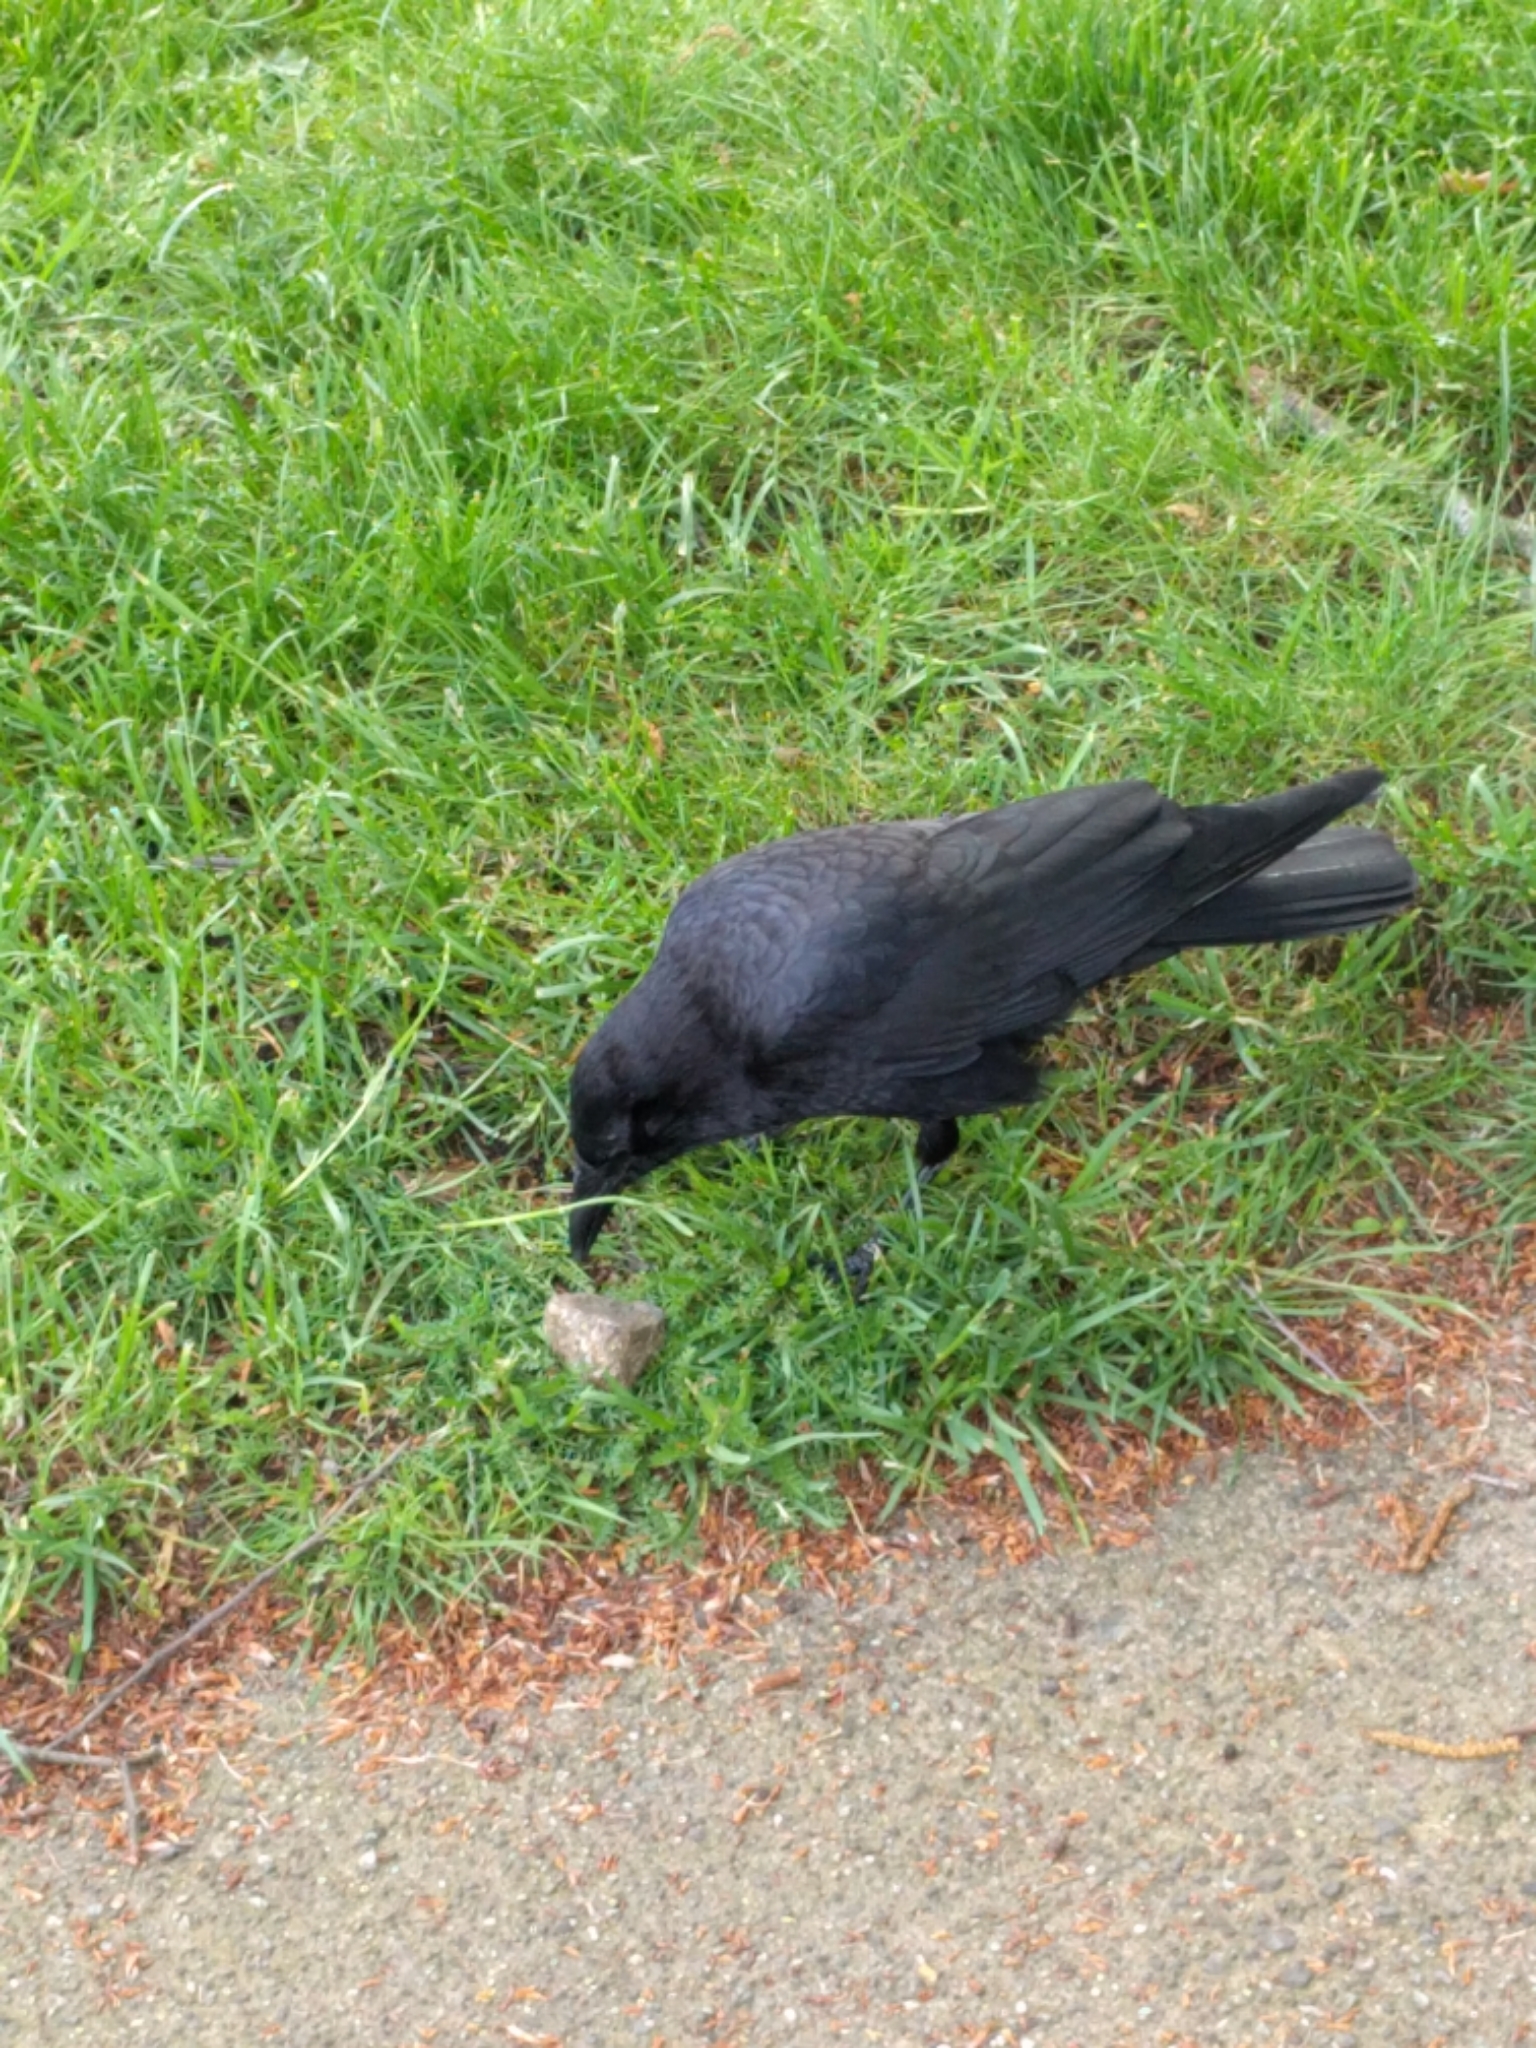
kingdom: Animalia
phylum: Chordata
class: Aves
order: Passeriformes
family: Corvidae
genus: Corvus
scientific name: Corvus brachyrhynchos
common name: American crow
